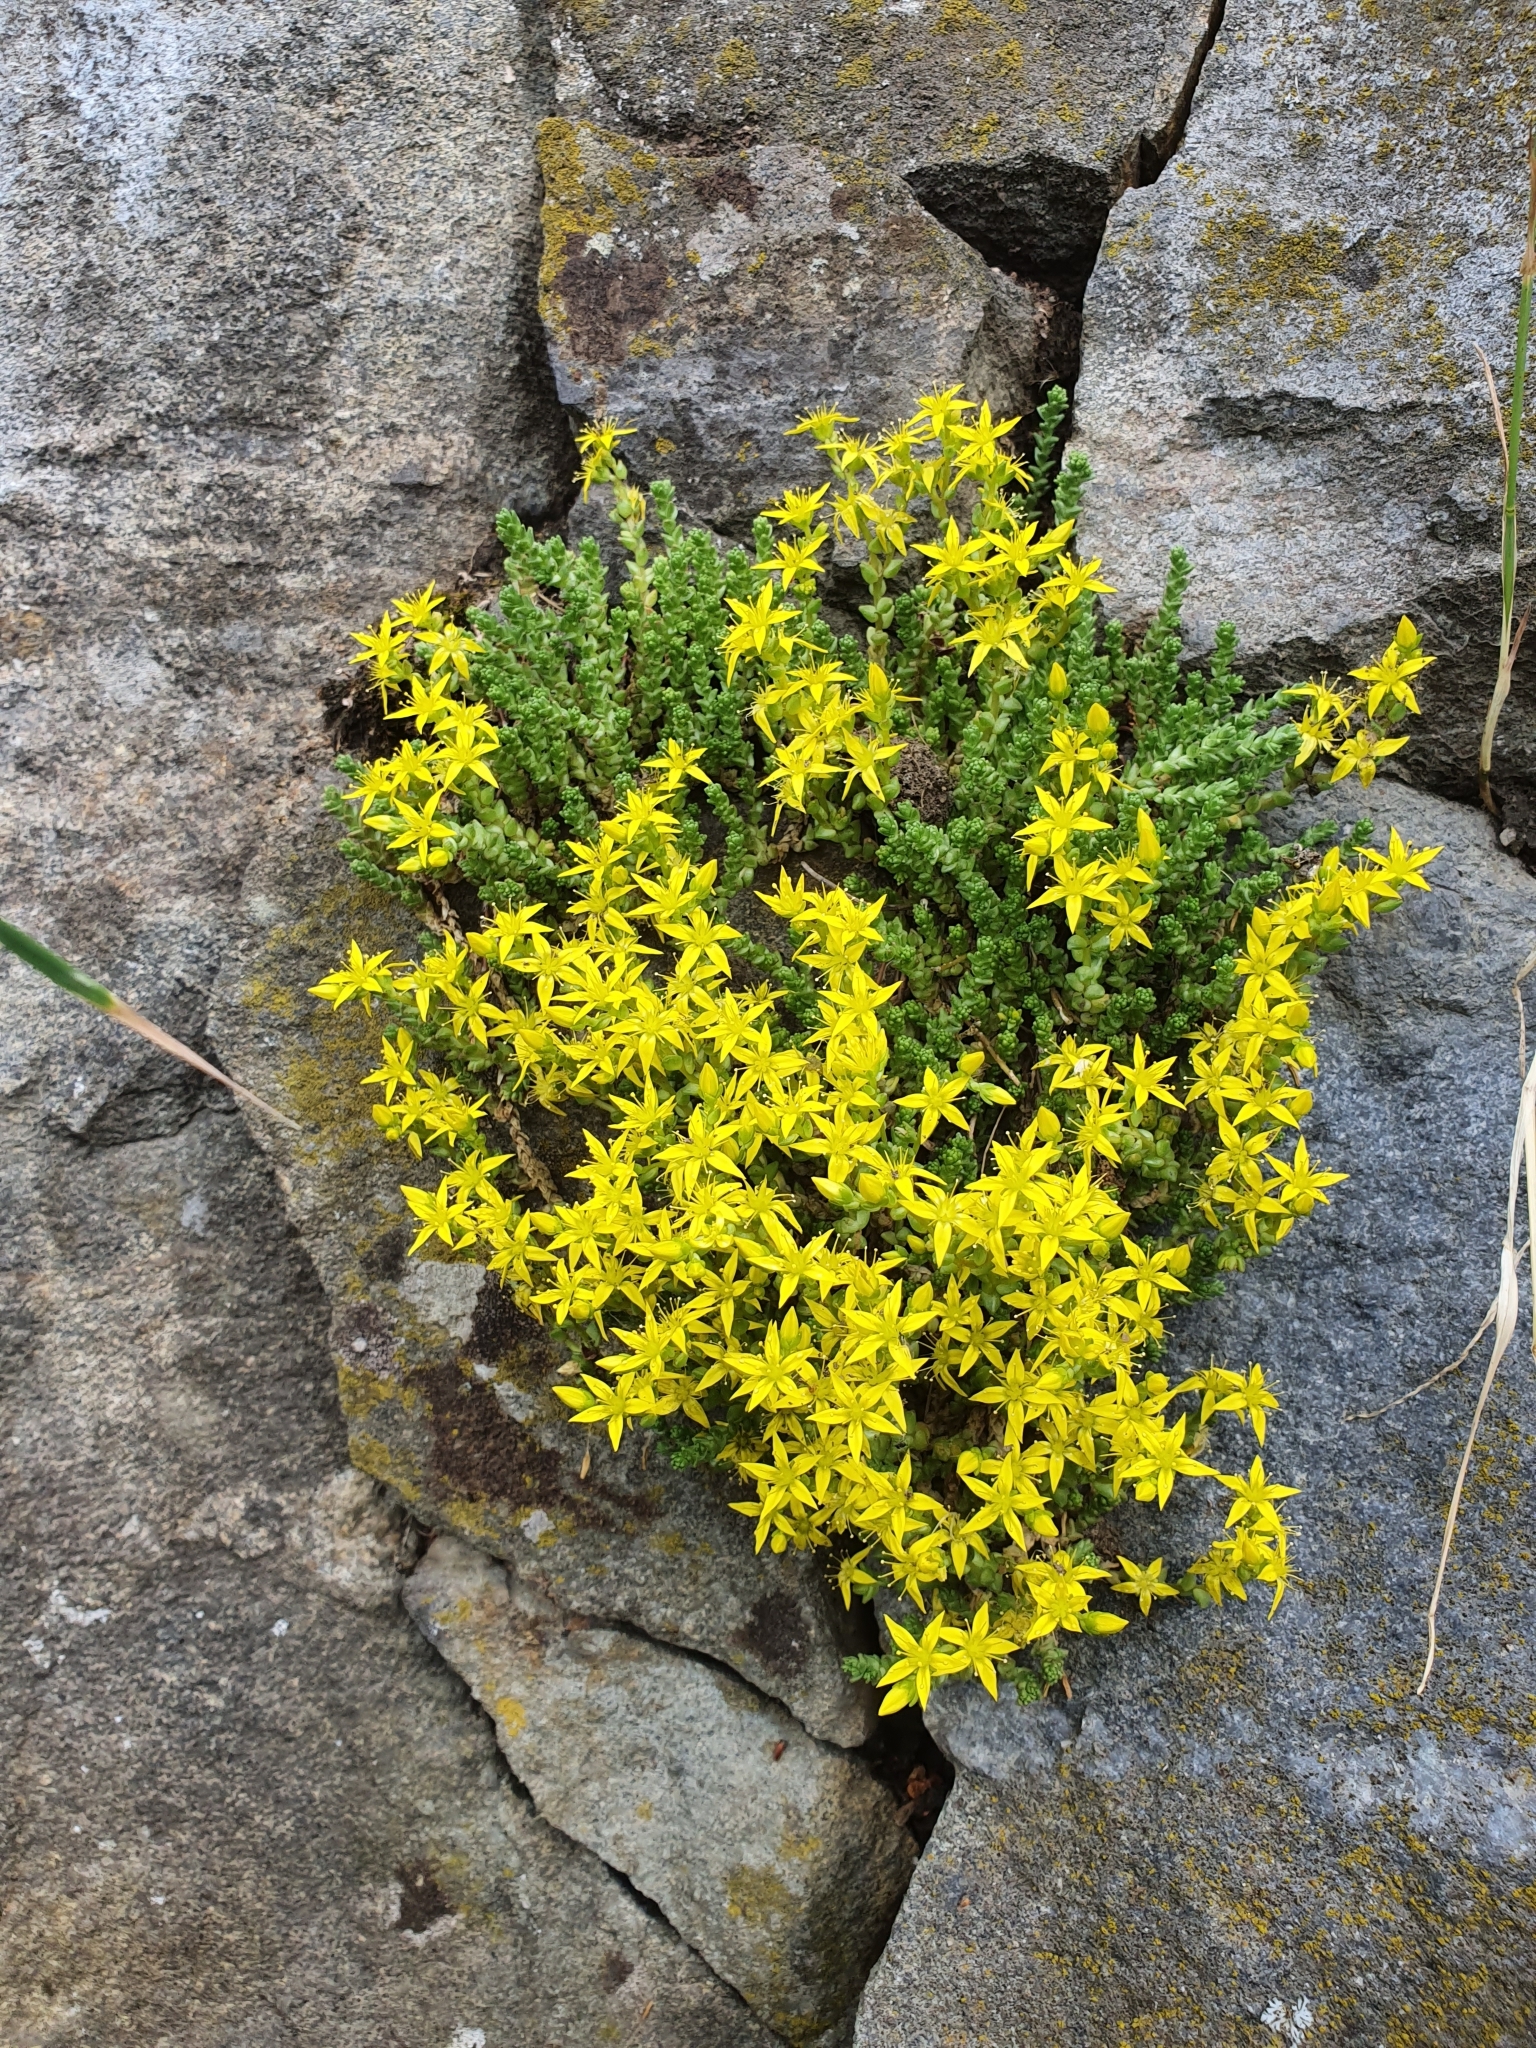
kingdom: Plantae
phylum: Tracheophyta
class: Magnoliopsida
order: Saxifragales
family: Crassulaceae
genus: Sedum
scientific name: Sedum acre
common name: Biting stonecrop
